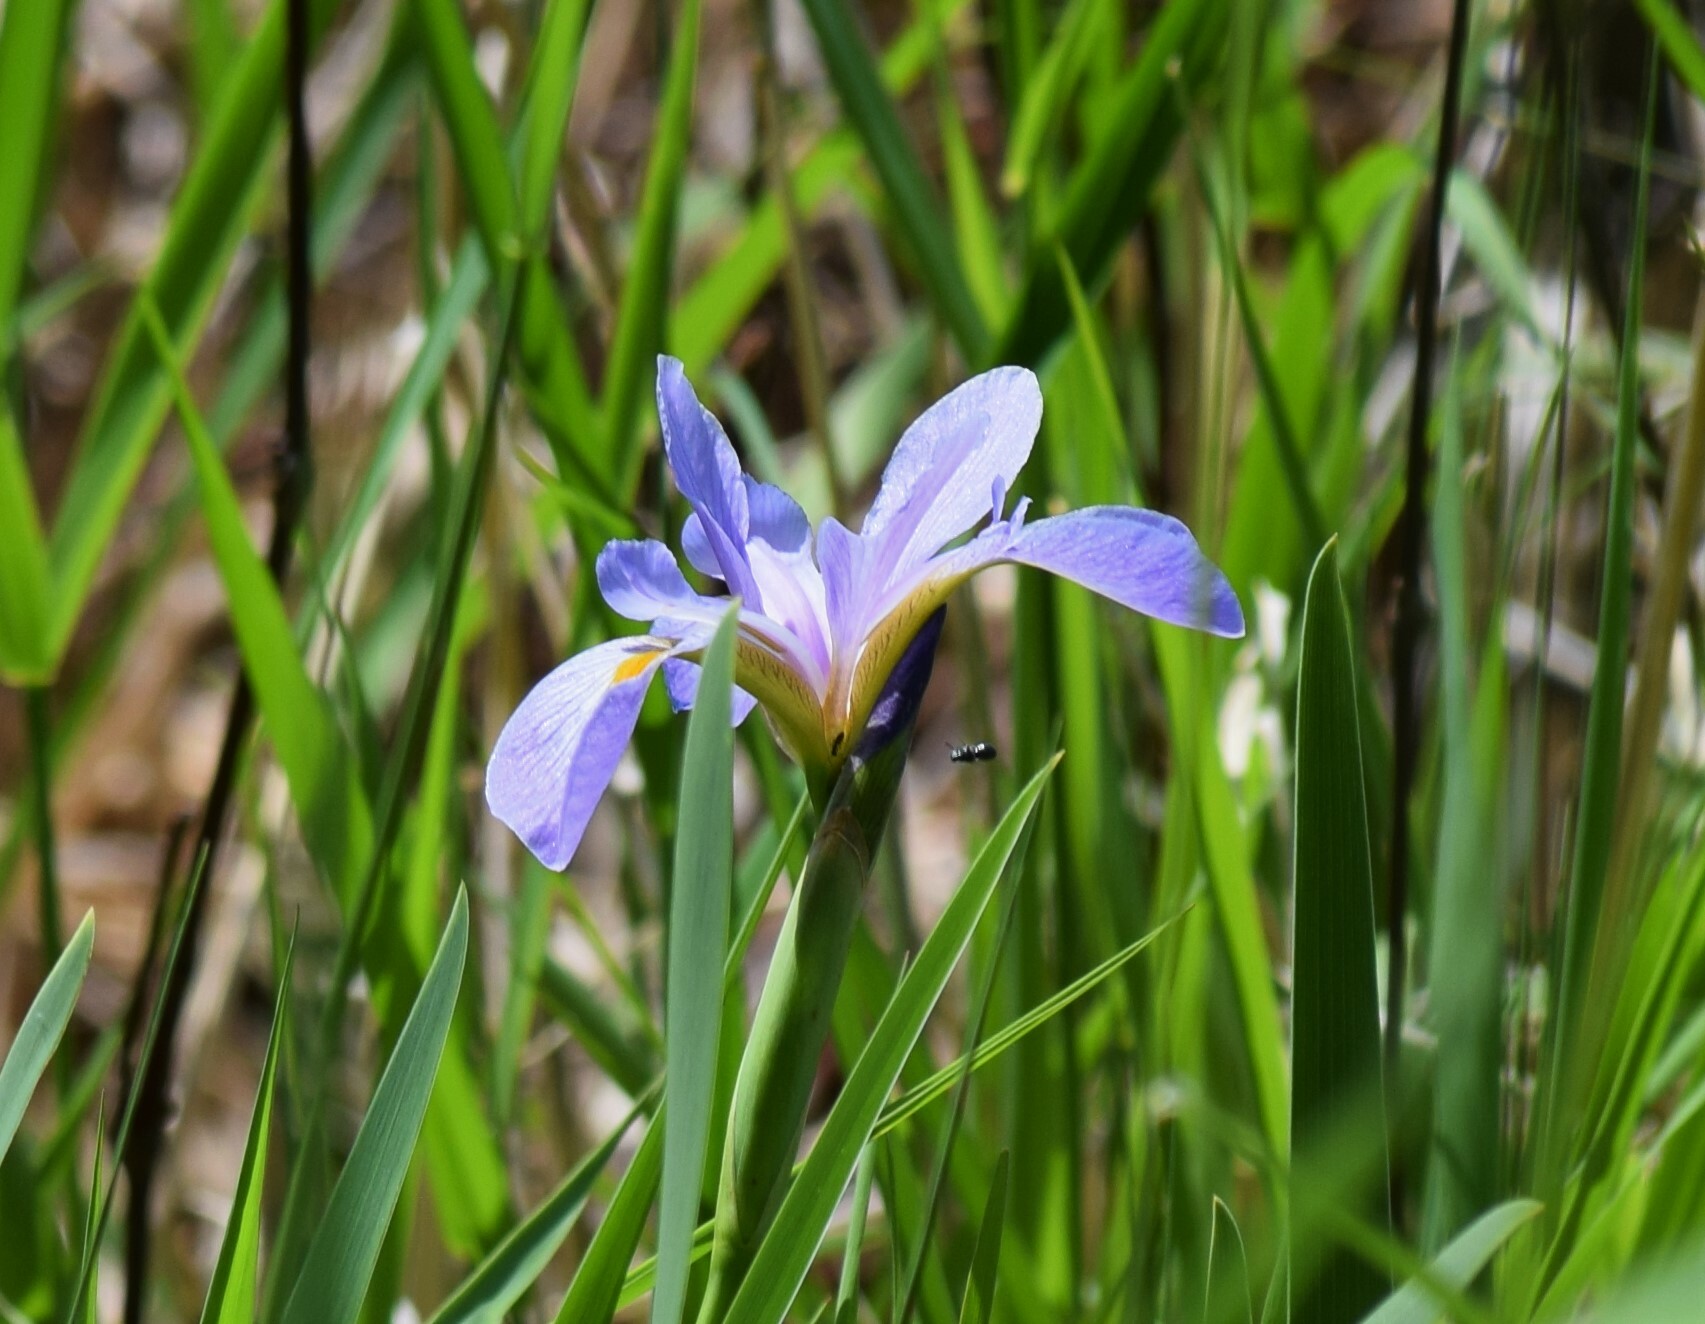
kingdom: Plantae
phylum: Tracheophyta
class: Liliopsida
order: Asparagales
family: Iridaceae
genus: Iris
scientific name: Iris virginica
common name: Southern blue flag
